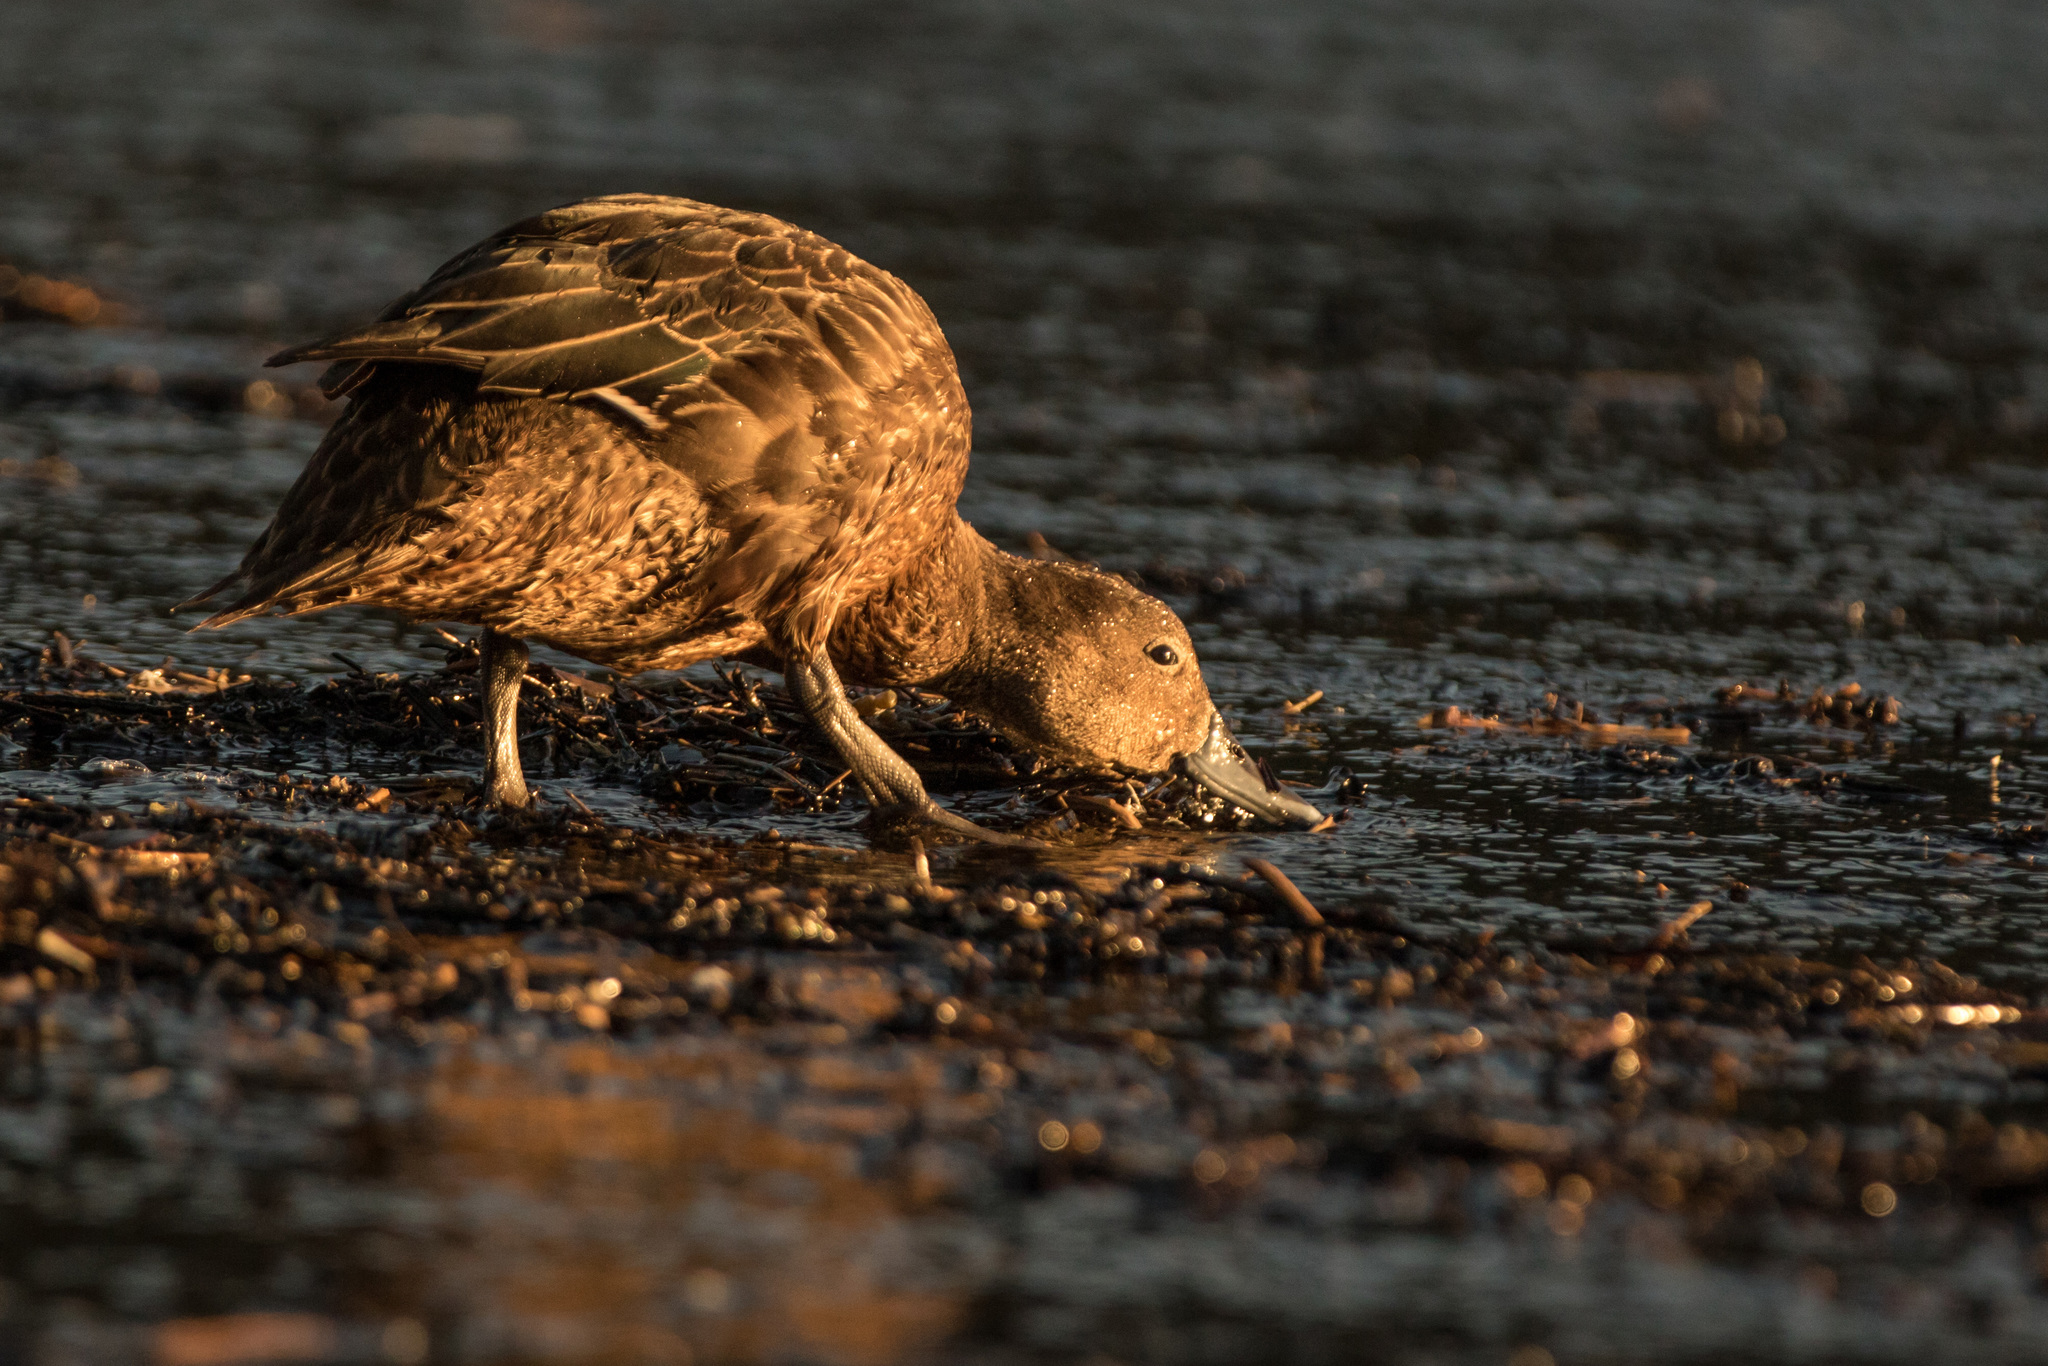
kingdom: Animalia
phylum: Chordata
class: Aves
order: Anseriformes
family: Anatidae
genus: Anas
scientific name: Anas chlorotis
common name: Brown teal
